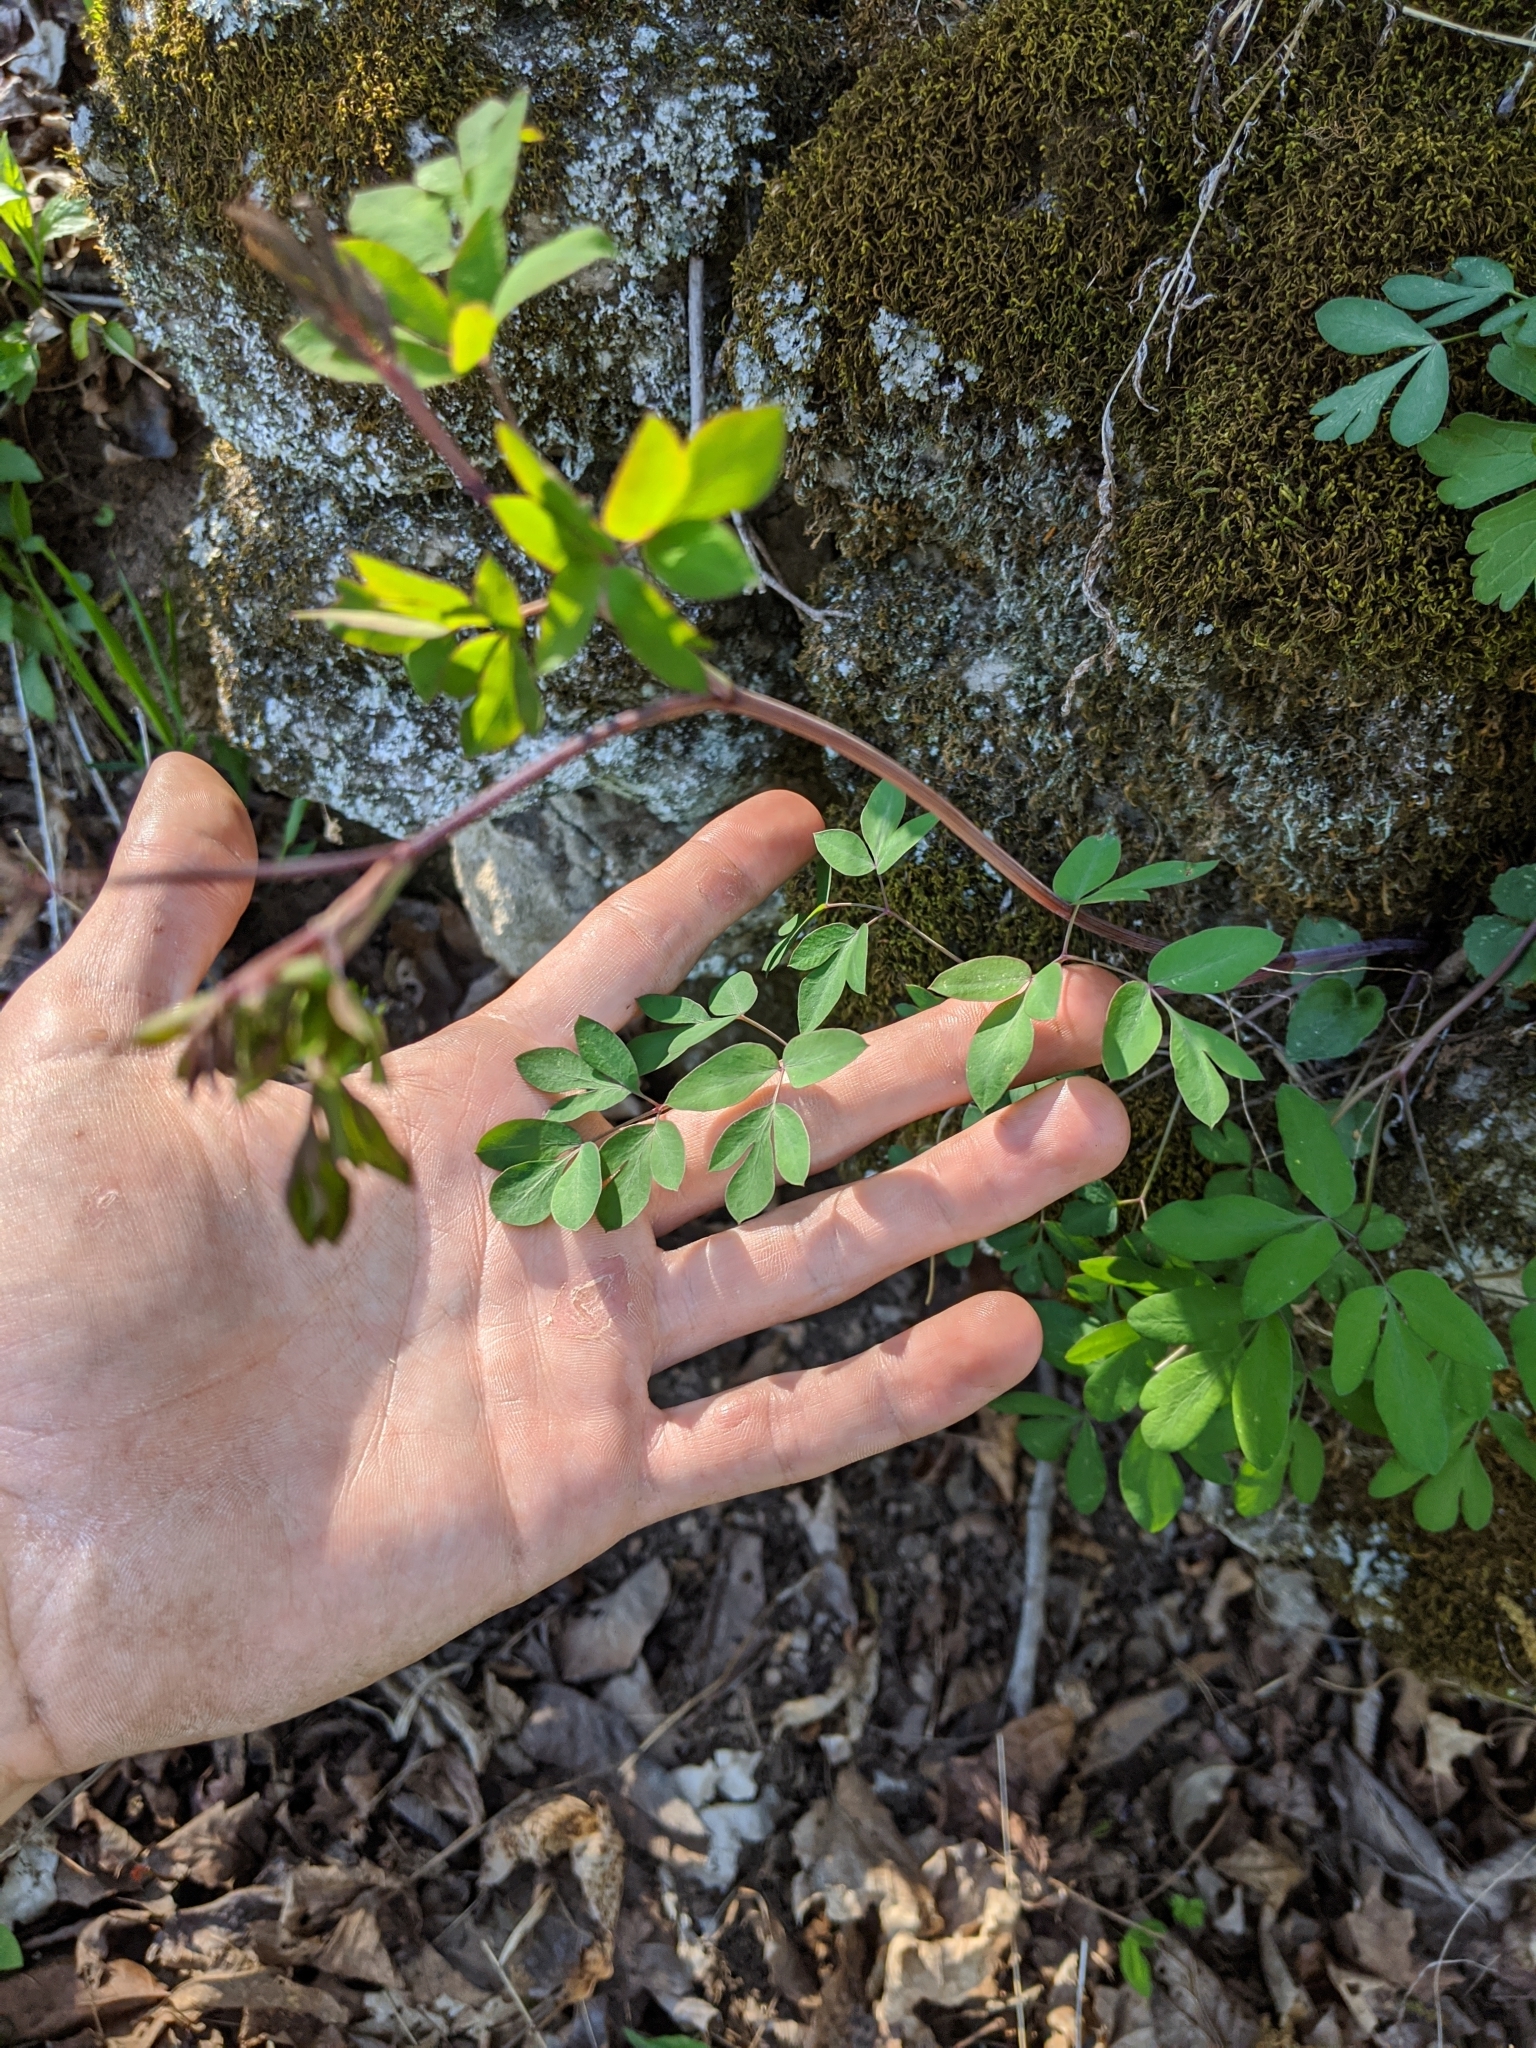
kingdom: Plantae
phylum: Tracheophyta
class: Magnoliopsida
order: Apiales
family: Apiaceae
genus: Taenidia
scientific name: Taenidia integerrima
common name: Golden alexander
